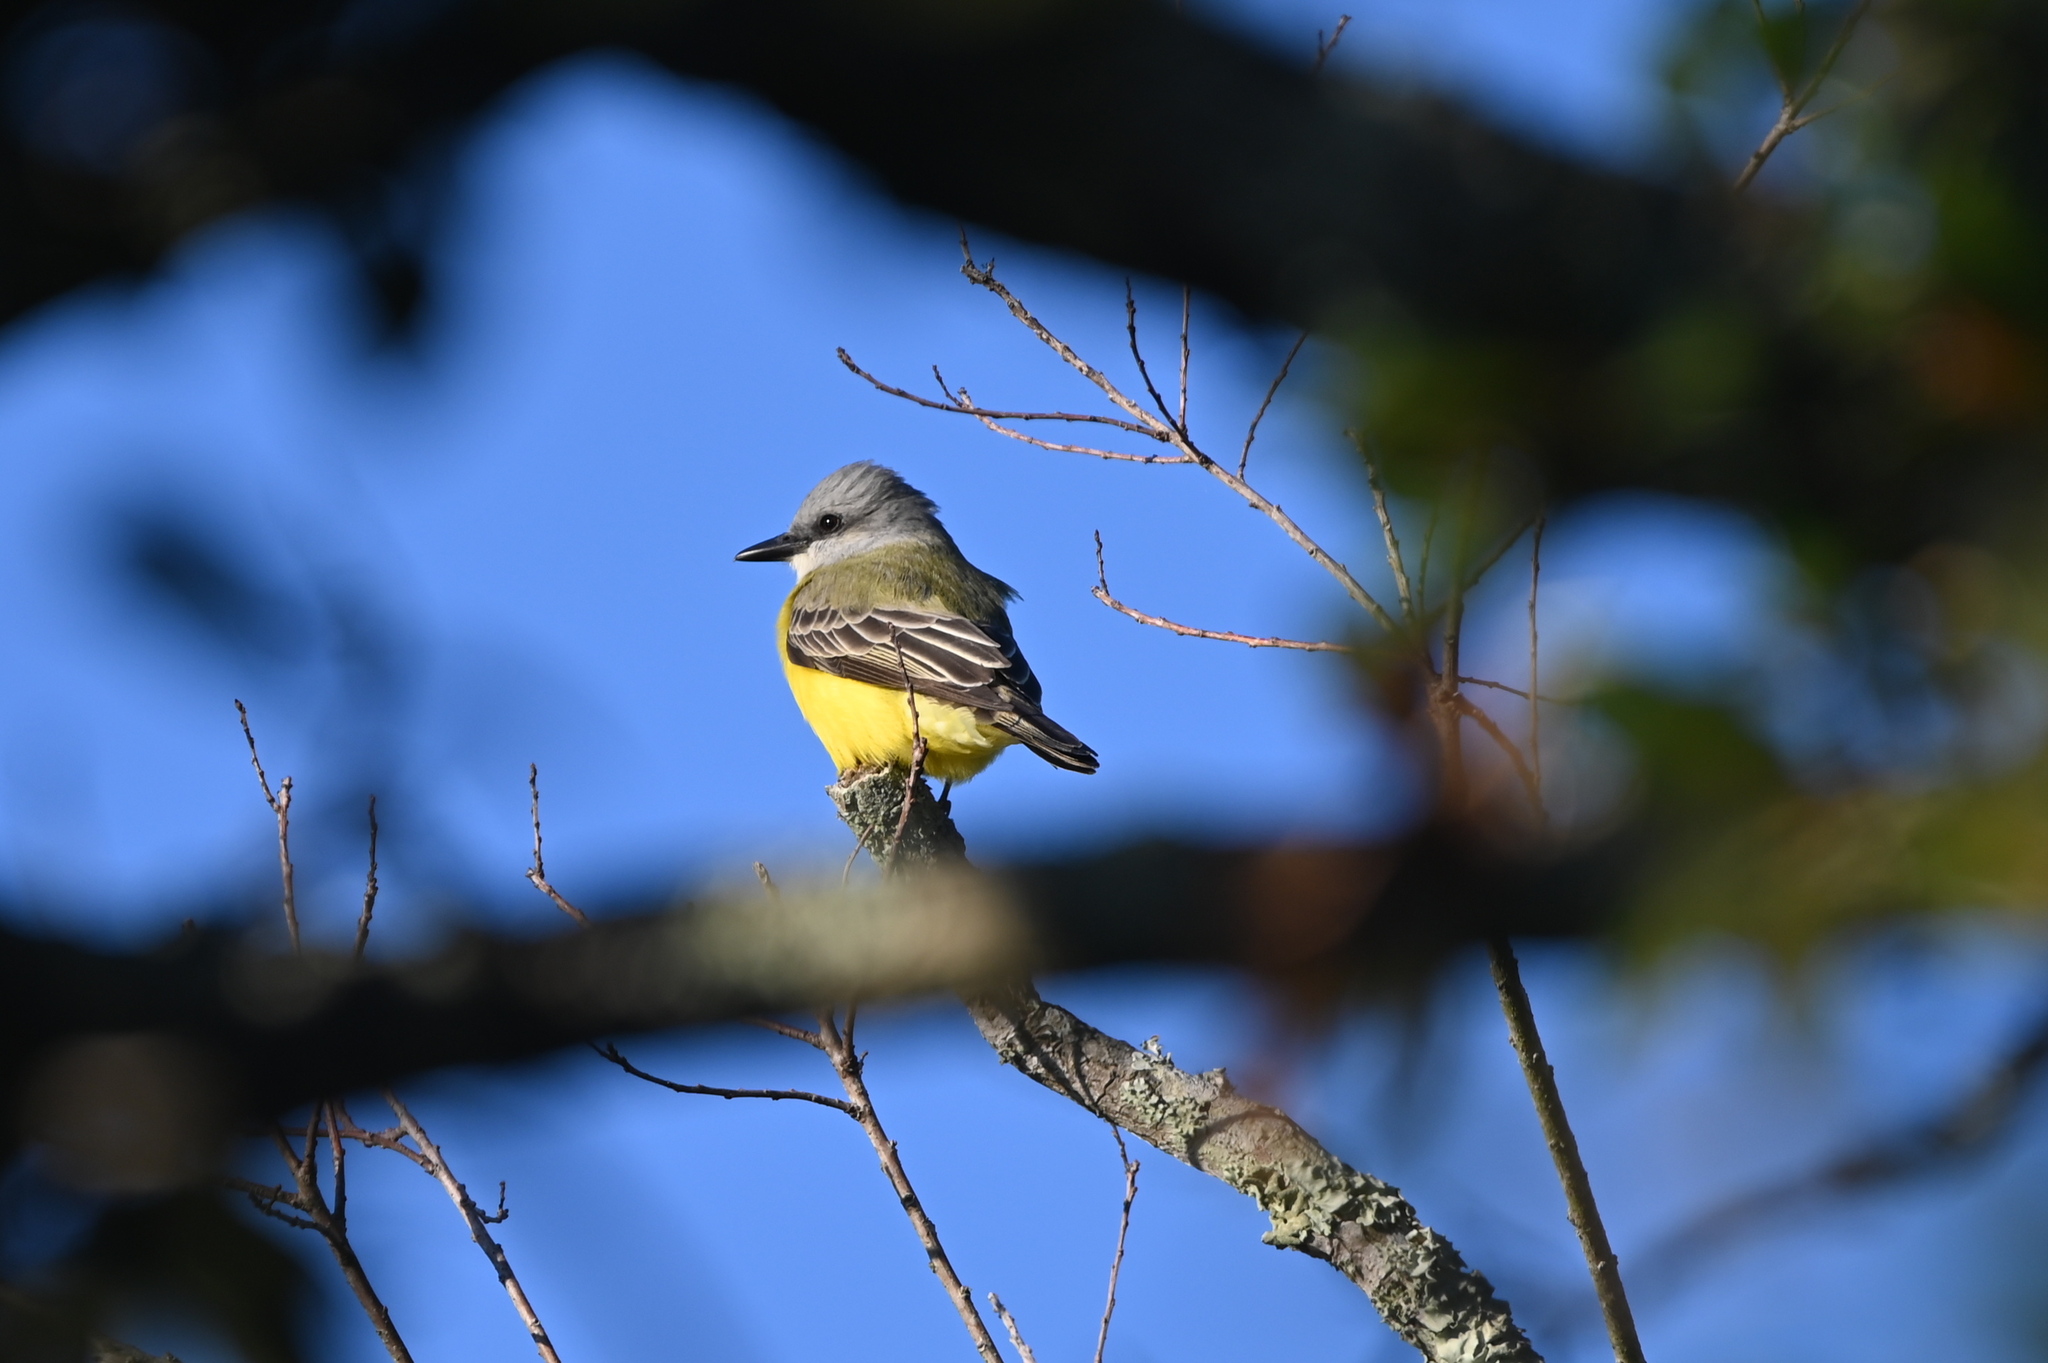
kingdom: Animalia
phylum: Chordata
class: Aves
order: Passeriformes
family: Tyrannidae
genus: Tyrannus
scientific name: Tyrannus couchii
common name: Couch's kingbird
